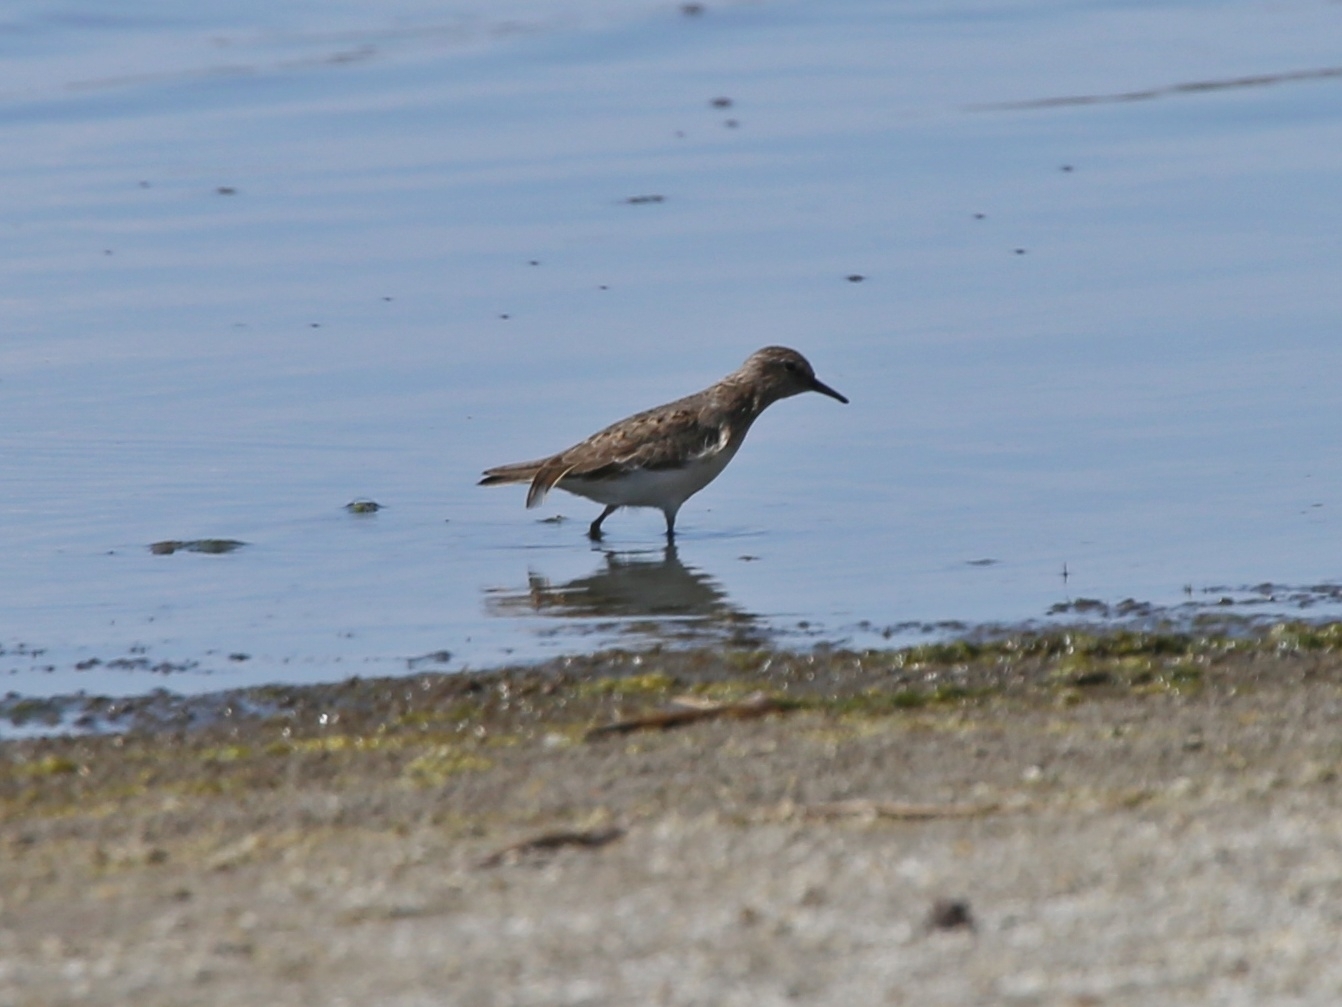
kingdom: Animalia
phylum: Chordata
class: Aves
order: Charadriiformes
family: Scolopacidae
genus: Calidris
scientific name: Calidris temminckii
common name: Temminck's stint
